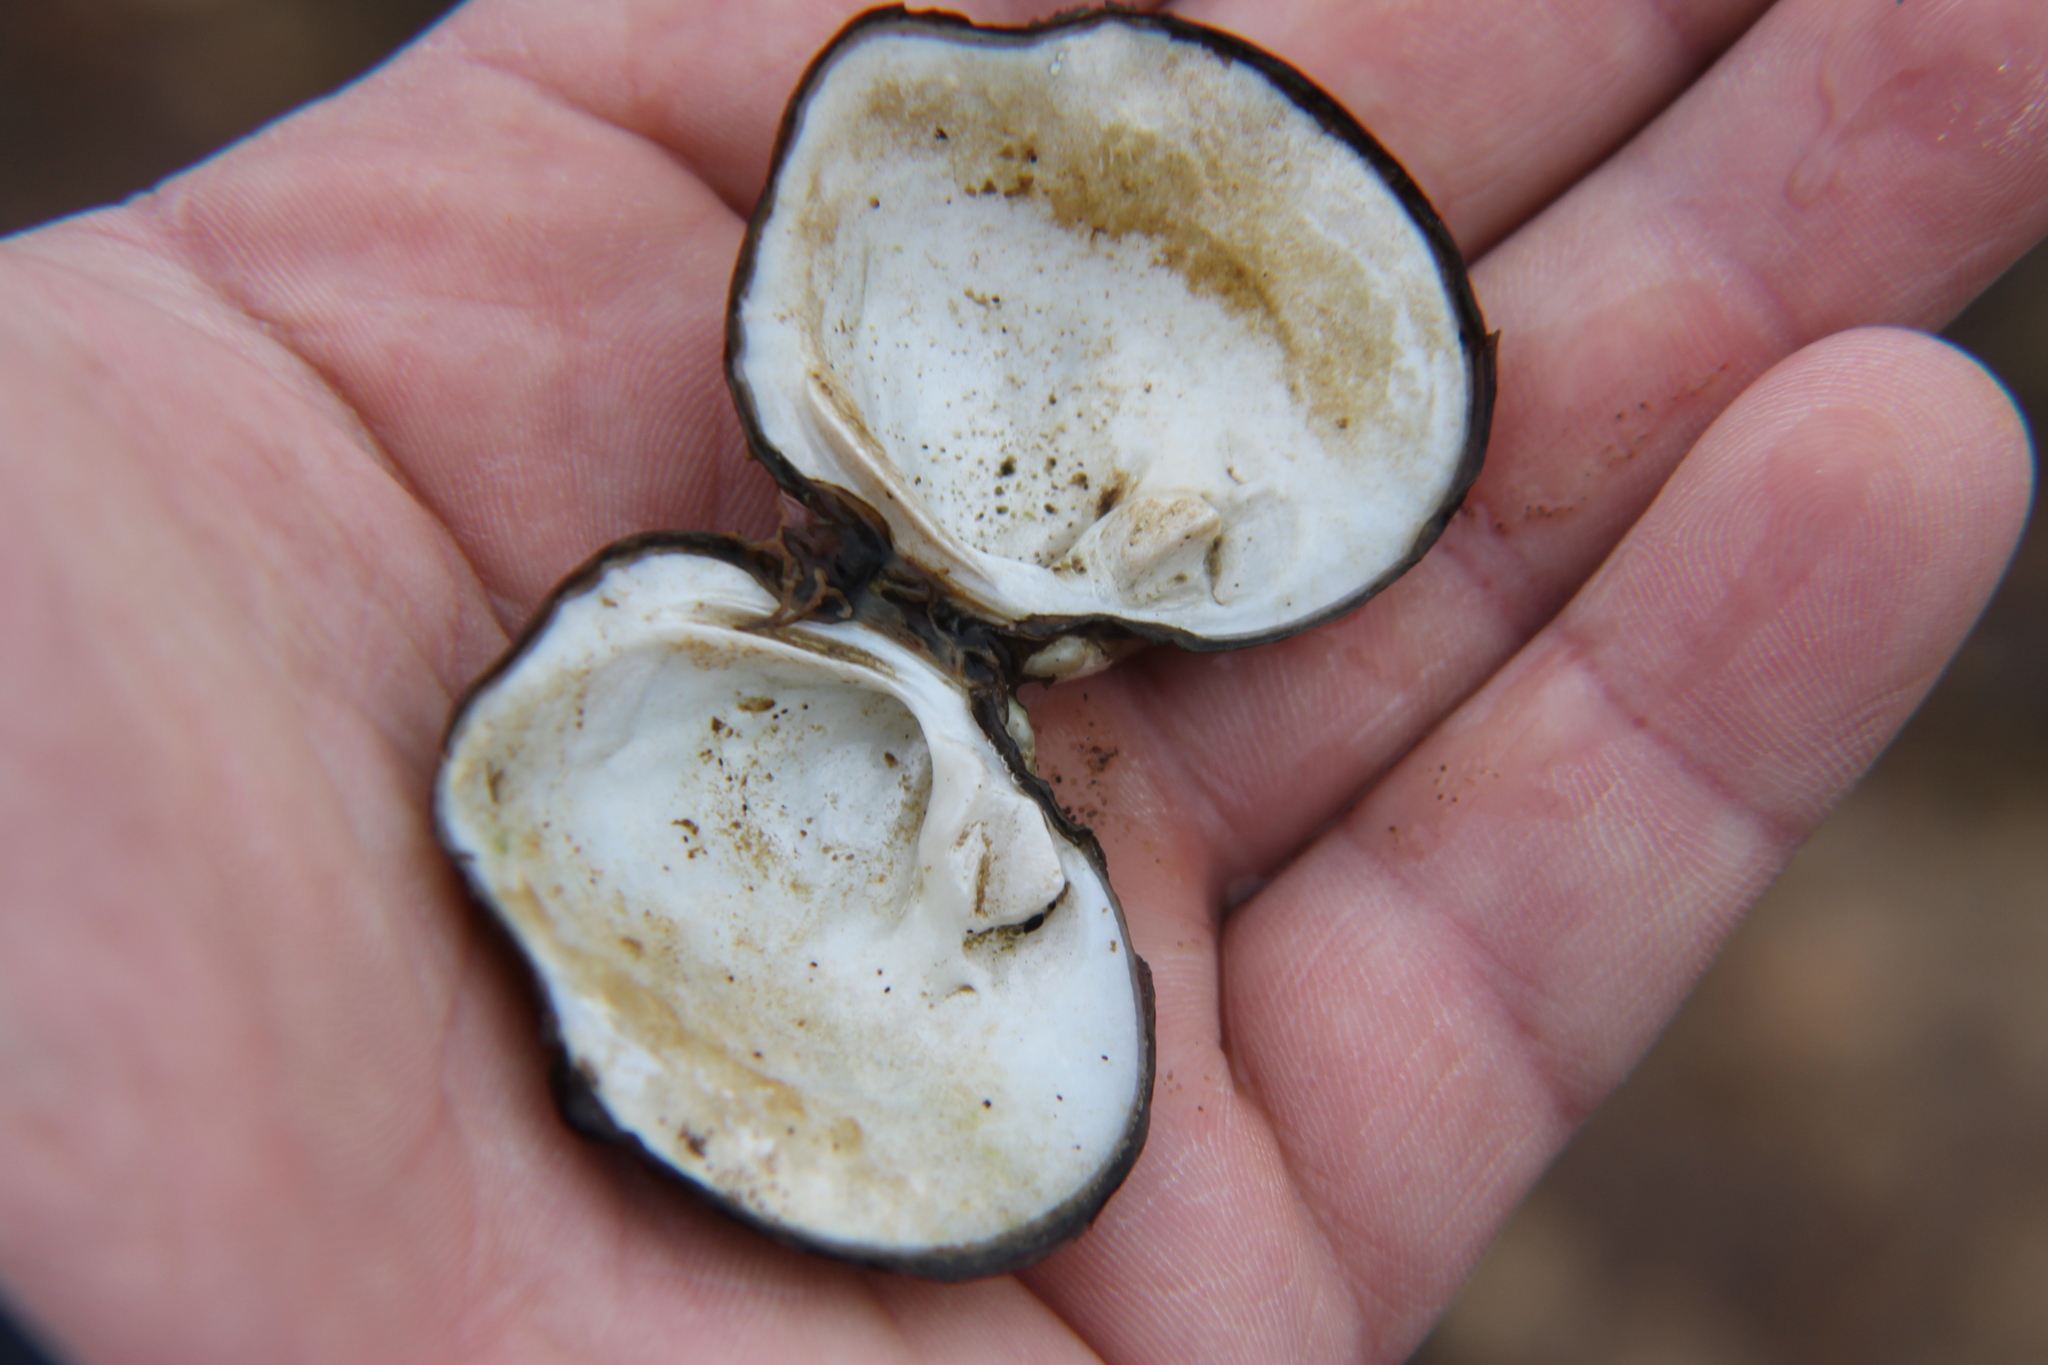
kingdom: Animalia
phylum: Mollusca
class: Bivalvia
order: Unionida
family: Unionidae
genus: Quadrula
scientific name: Quadrula quadrula
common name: Mapleleaf
